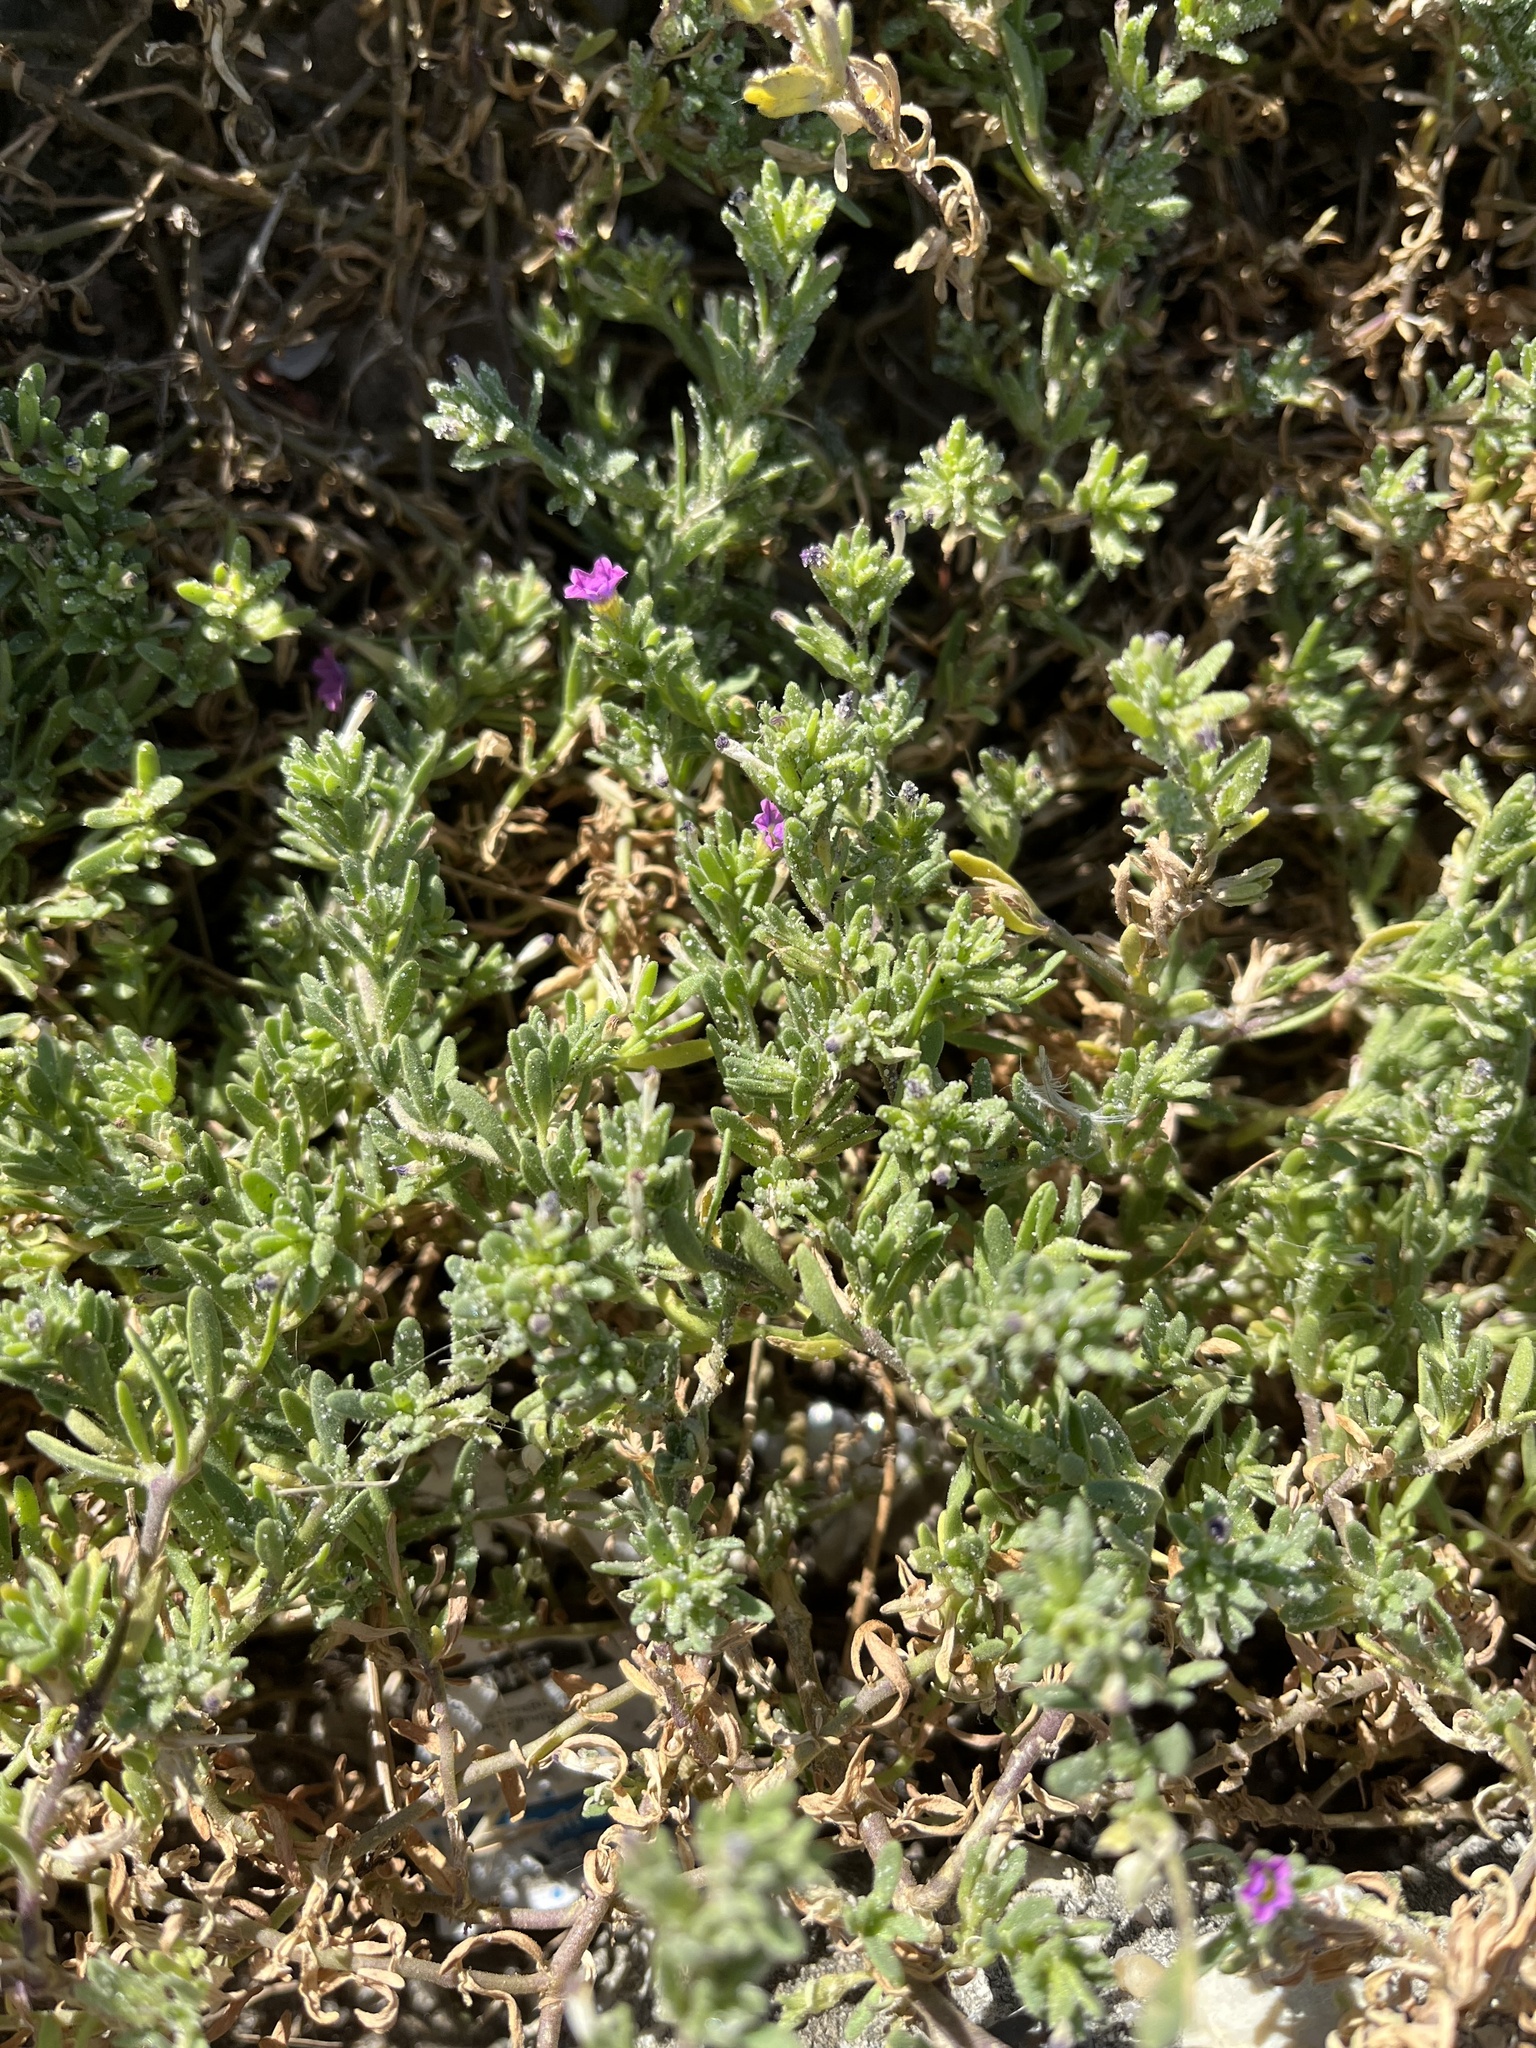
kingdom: Plantae
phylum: Tracheophyta
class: Magnoliopsida
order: Solanales
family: Solanaceae
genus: Calibrachoa
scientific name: Calibrachoa parviflora
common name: Seaside petunia
